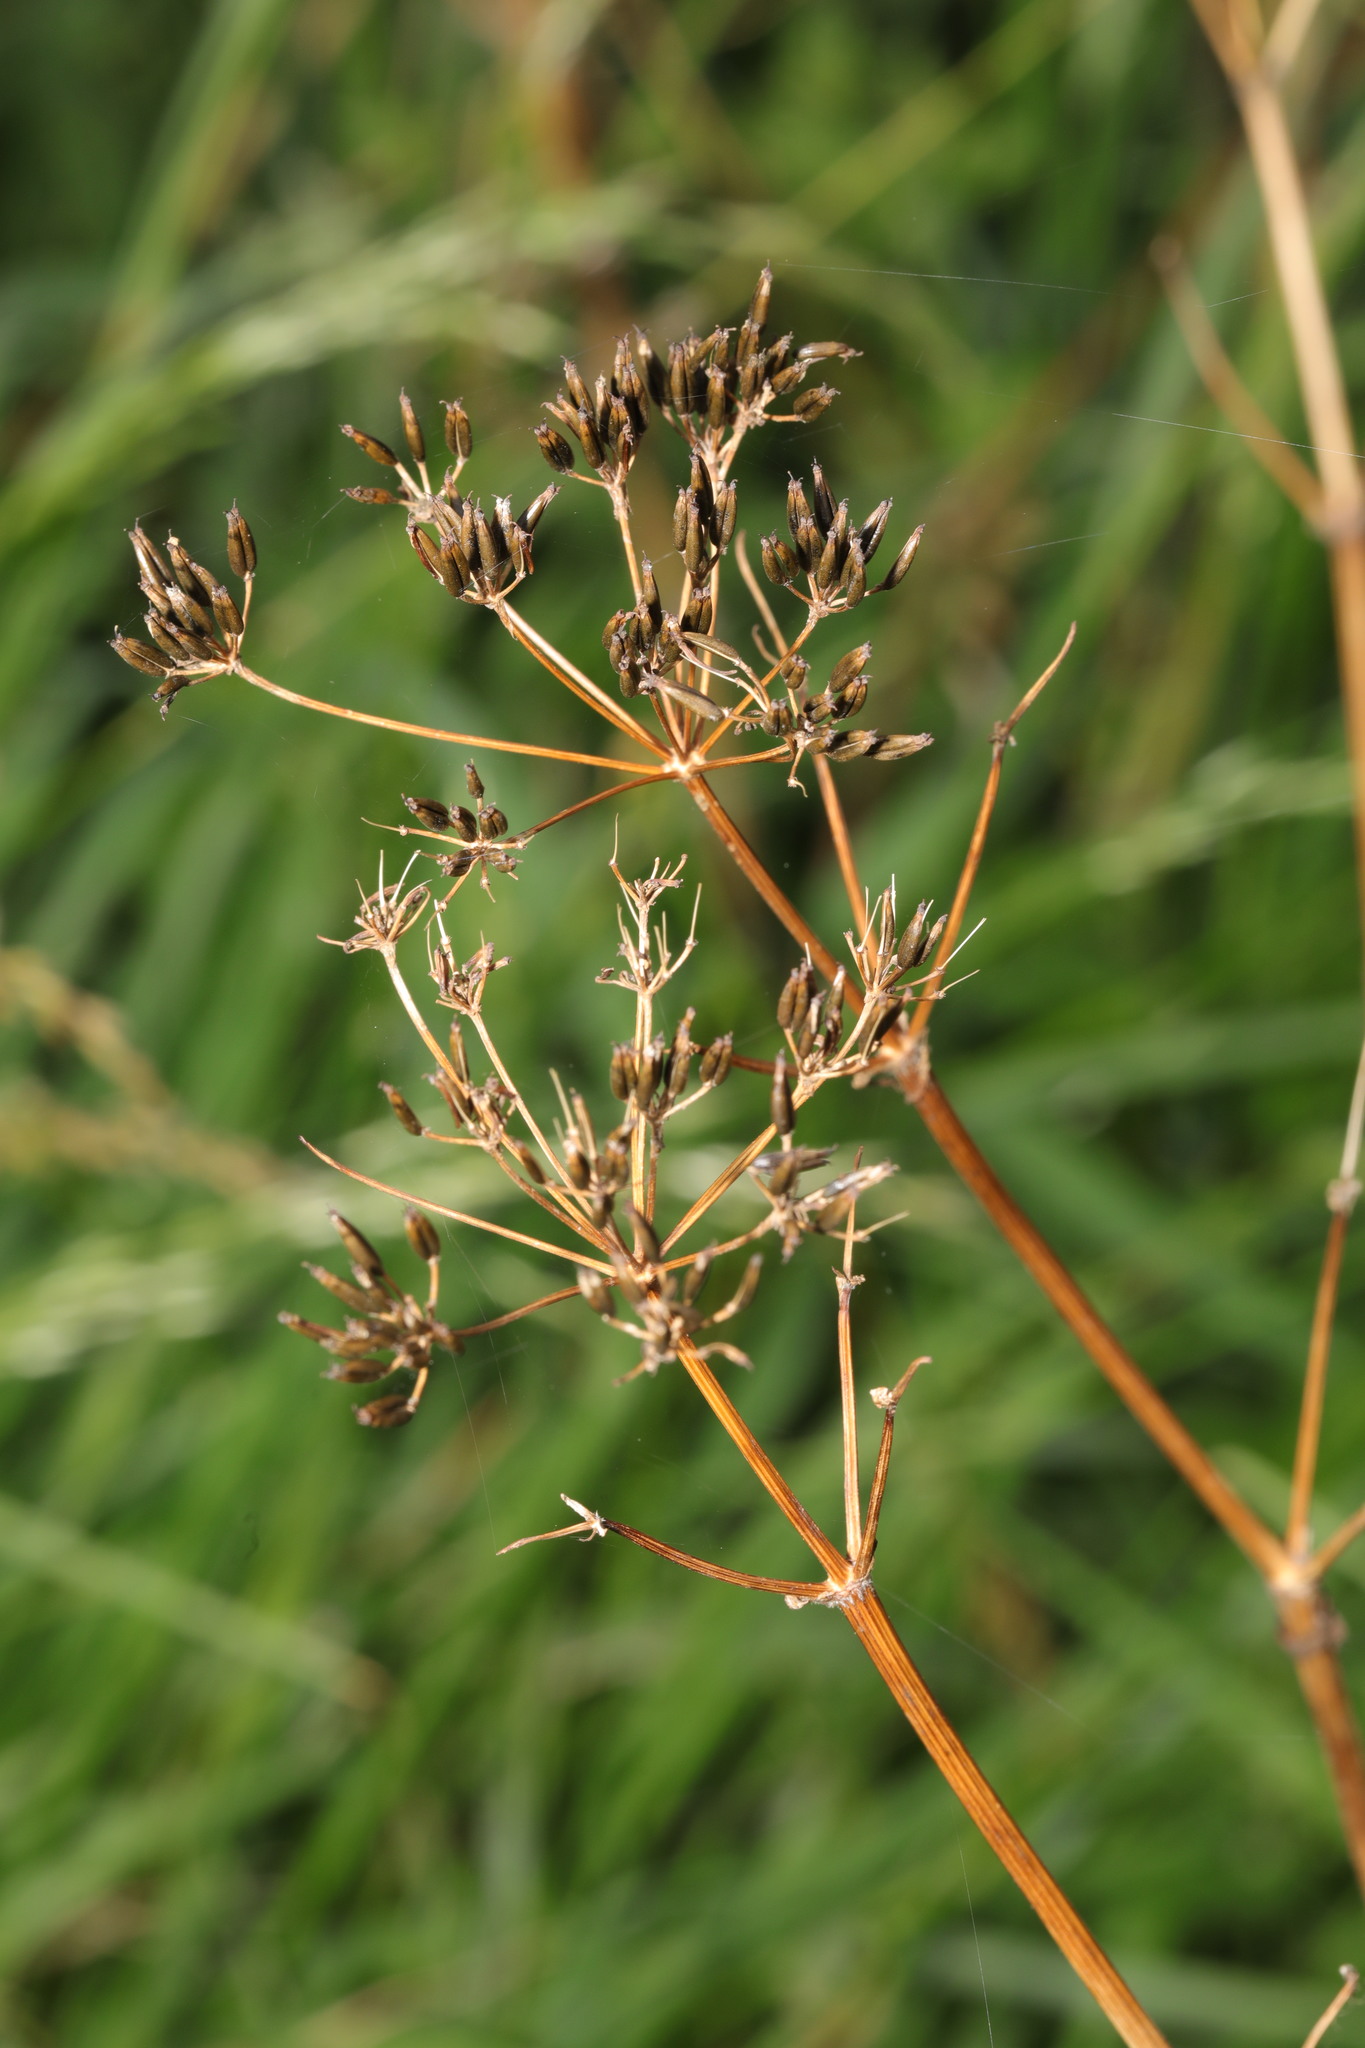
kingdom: Plantae
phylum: Tracheophyta
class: Magnoliopsida
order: Apiales
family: Apiaceae
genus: Anthriscus
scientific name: Anthriscus sylvestris
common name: Cow parsley
